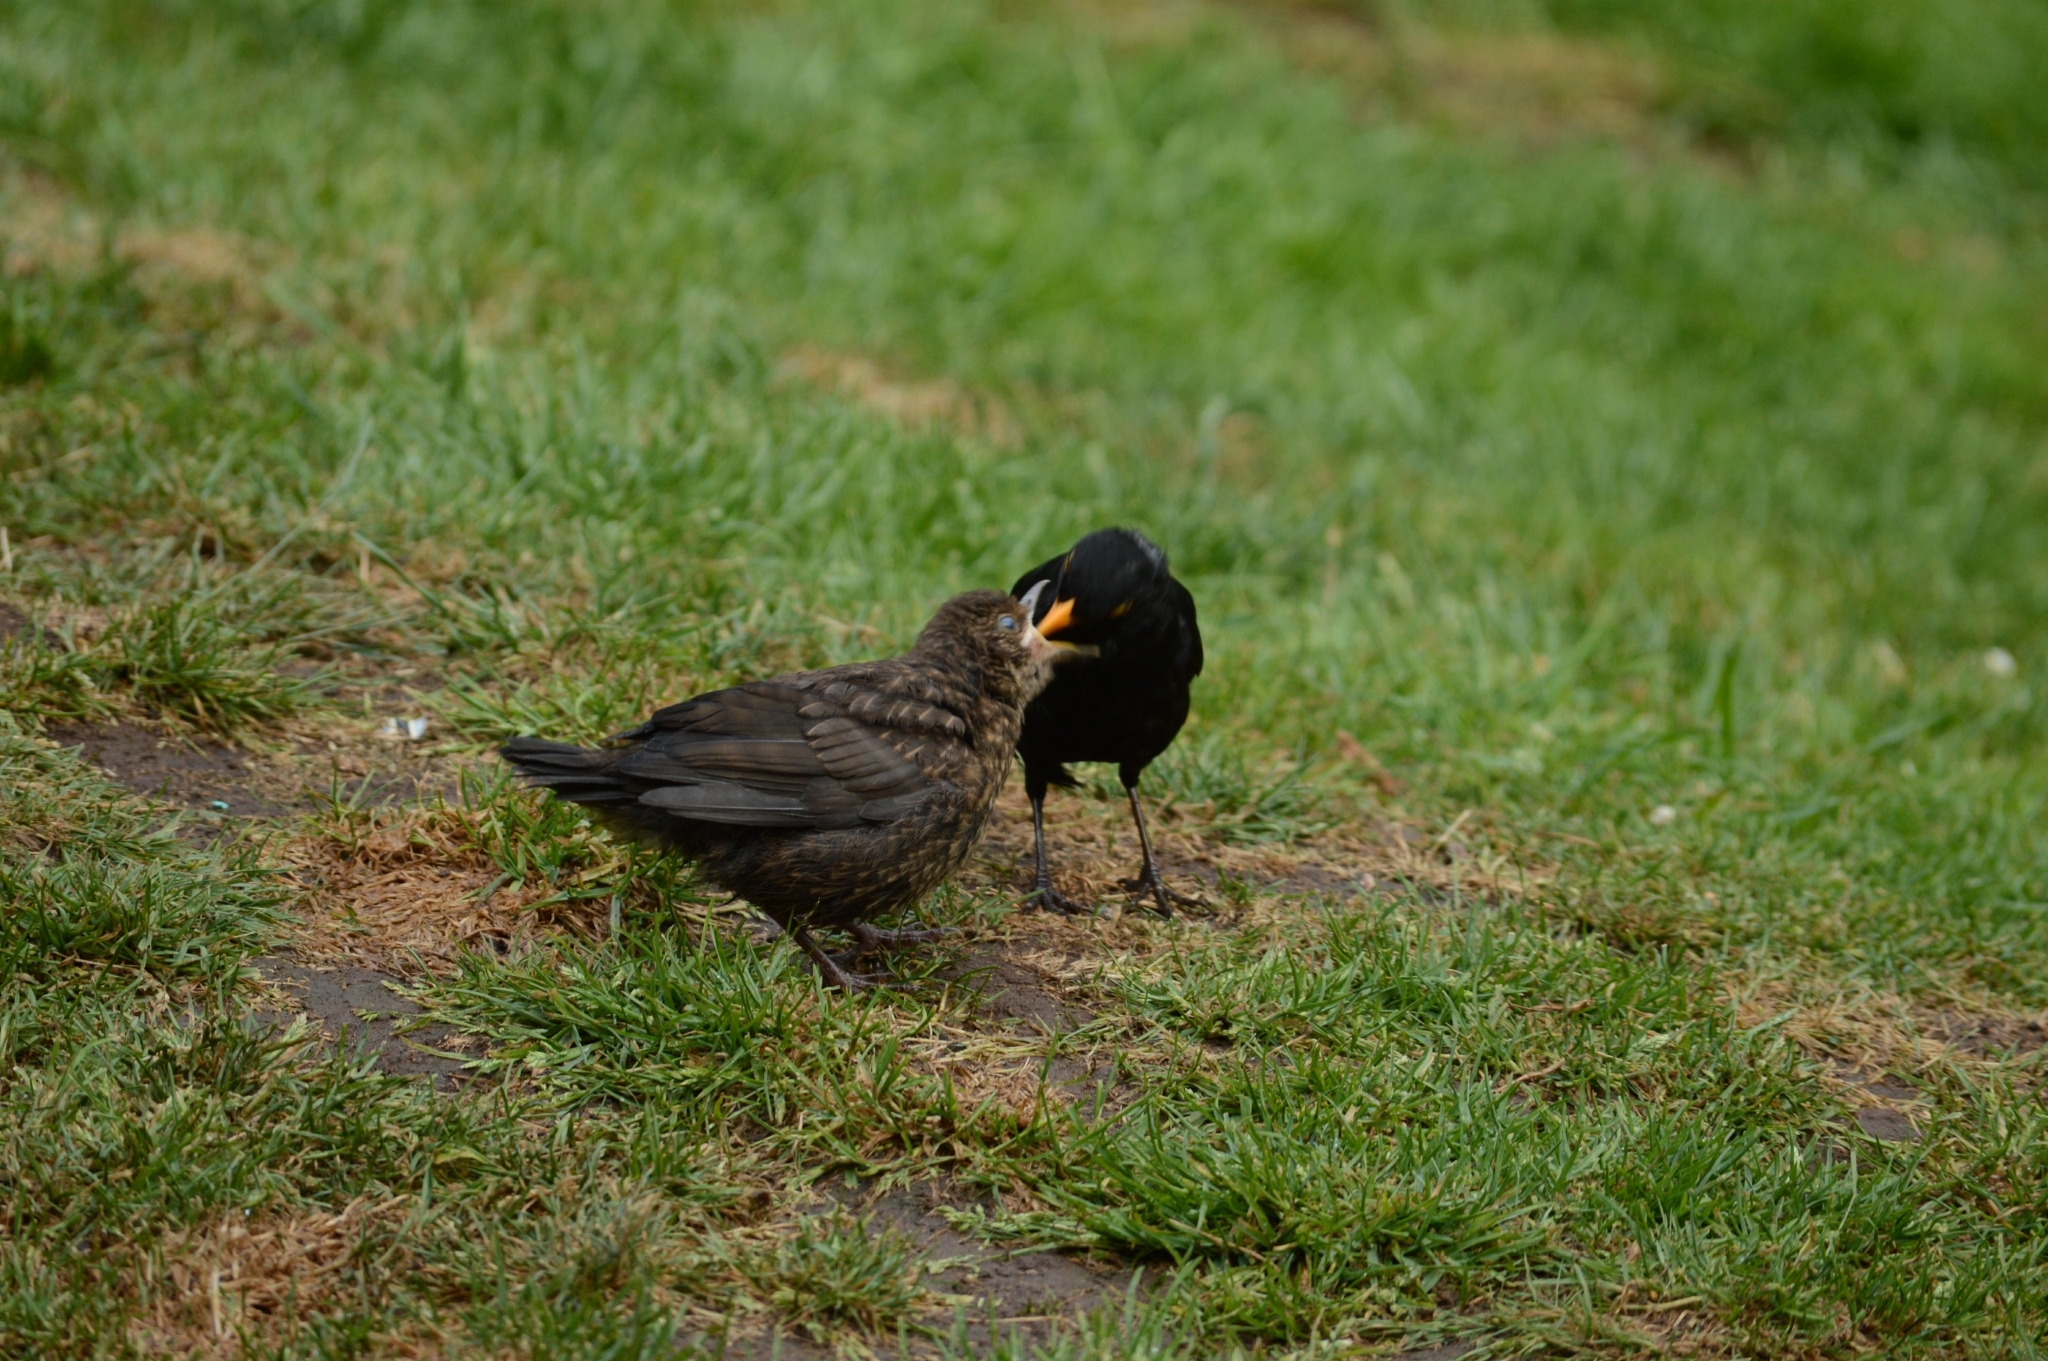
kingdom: Animalia
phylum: Chordata
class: Aves
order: Passeriformes
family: Turdidae
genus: Turdus
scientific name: Turdus merula
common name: Common blackbird
